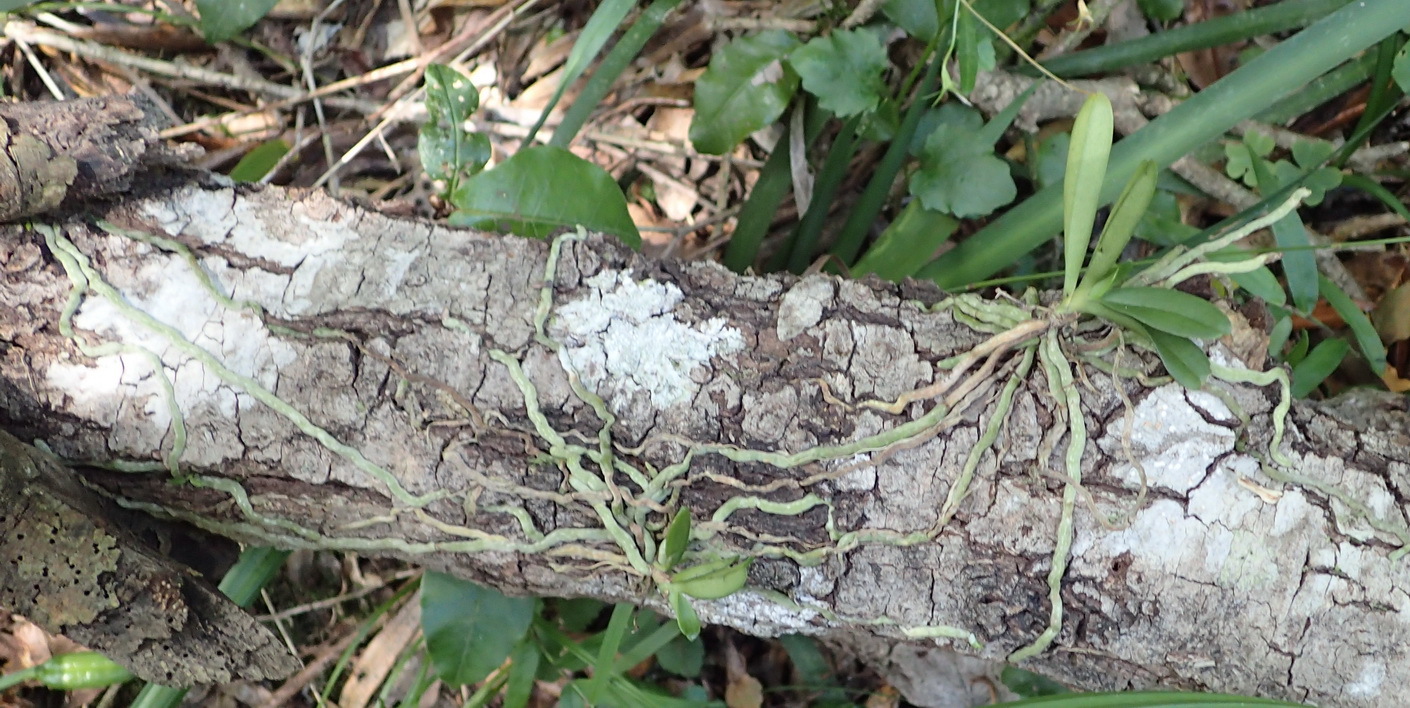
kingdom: Plantae
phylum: Tracheophyta
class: Liliopsida
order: Asparagales
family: Orchidaceae
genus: Mystacidium
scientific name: Mystacidium capense
